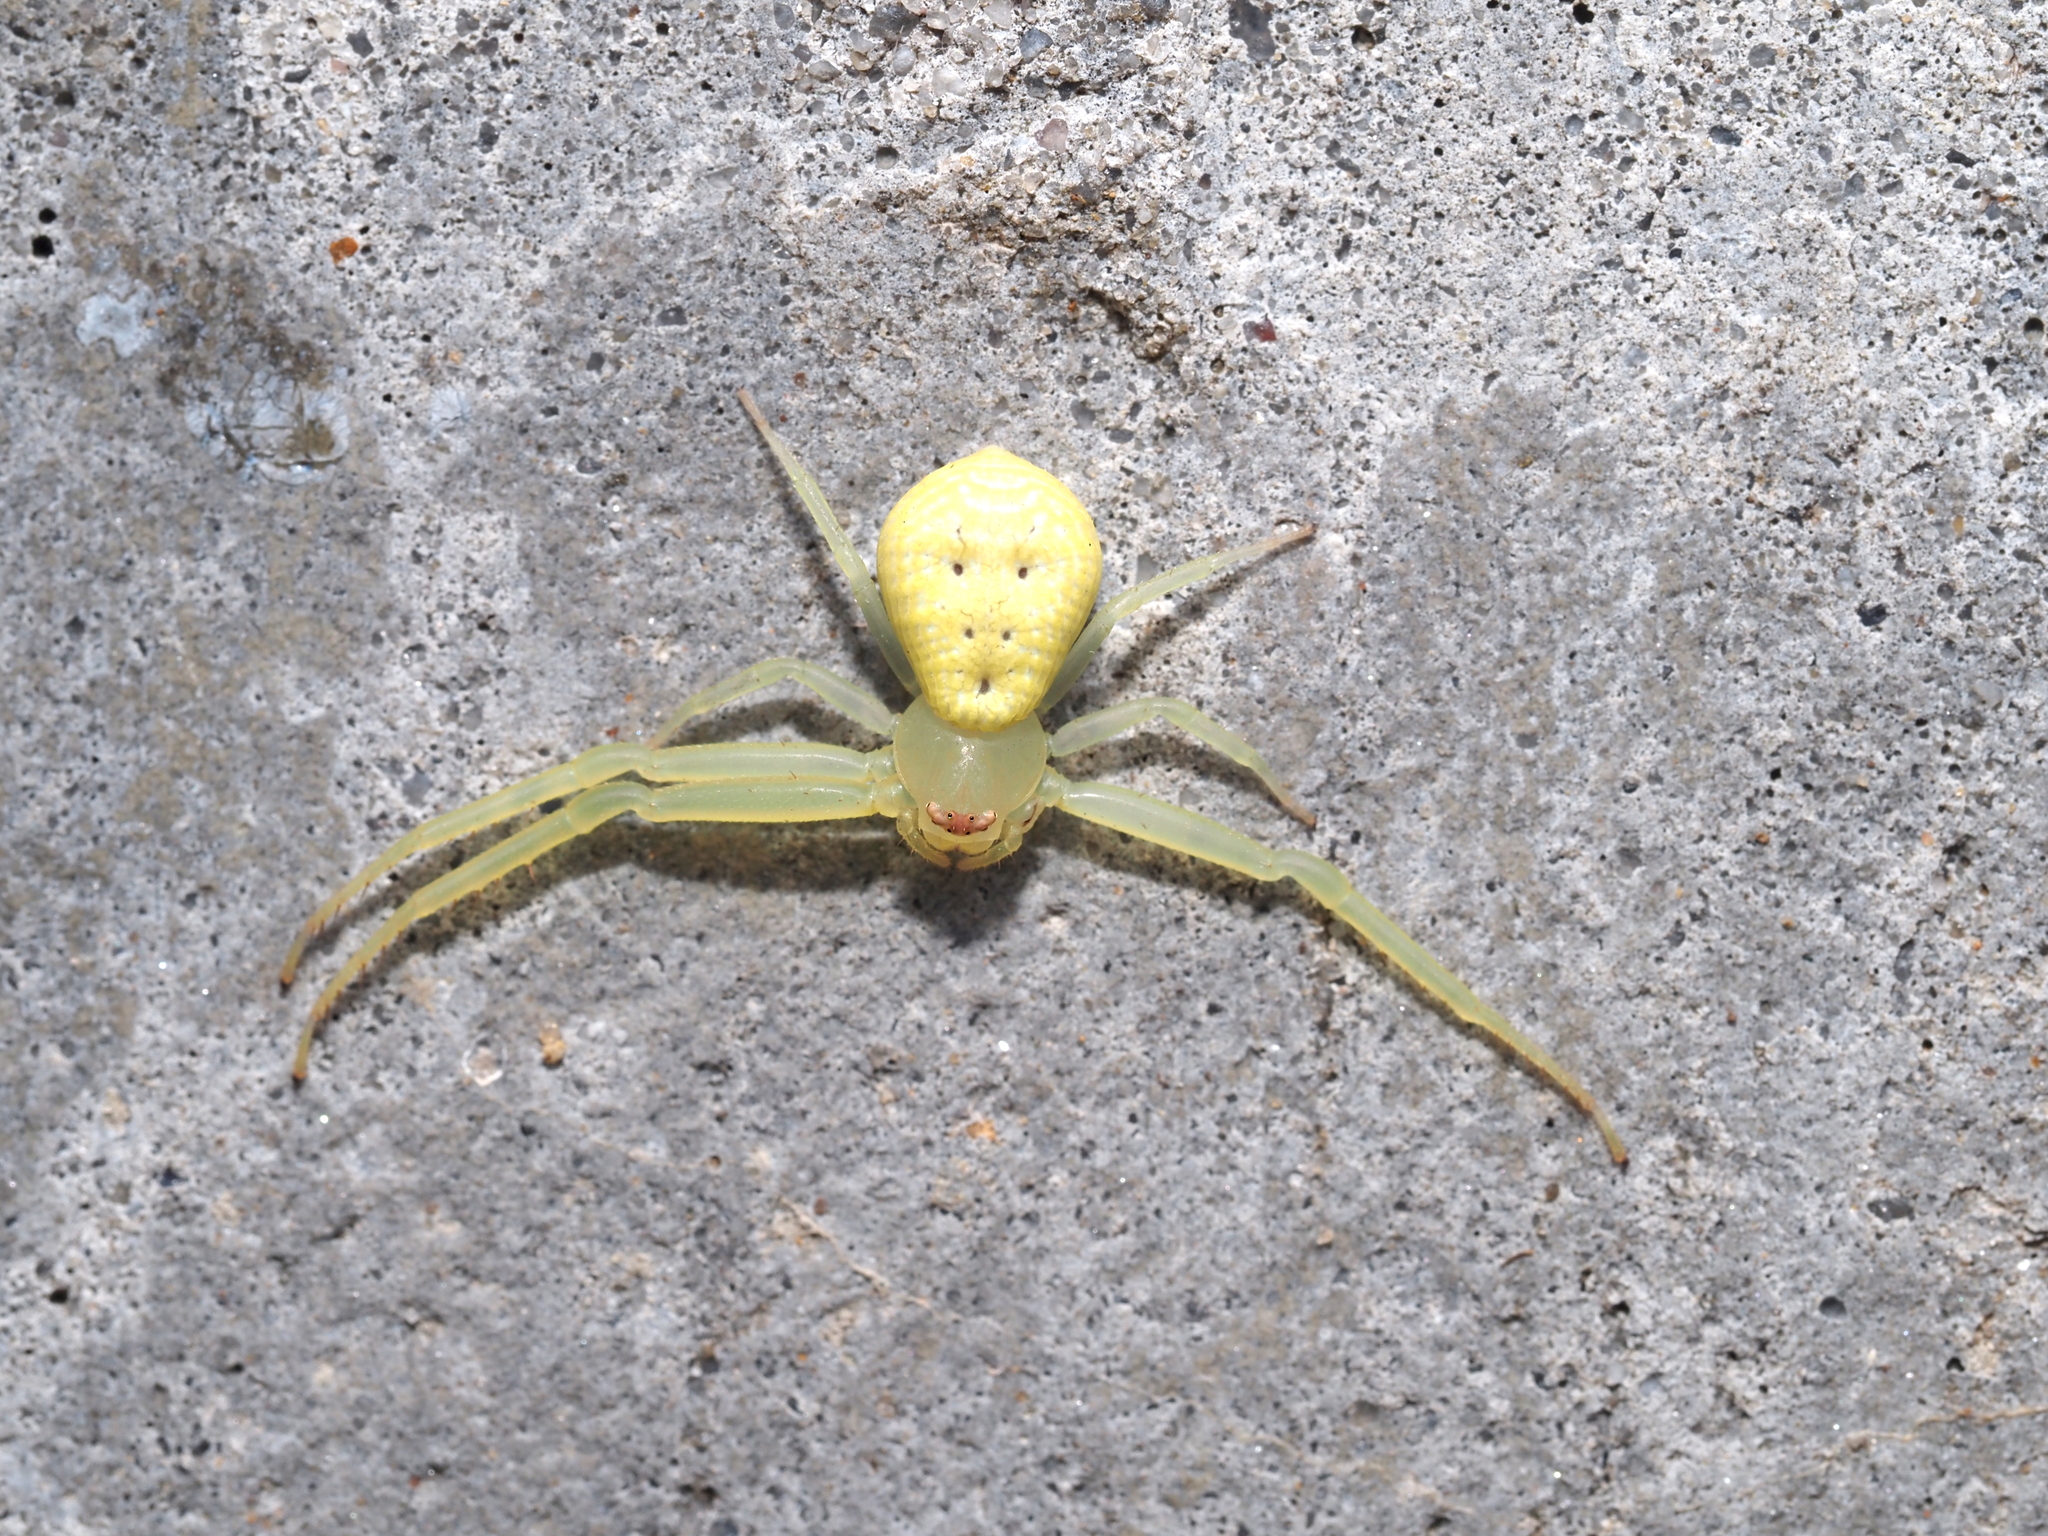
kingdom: Animalia
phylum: Arthropoda
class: Arachnida
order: Araneae
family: Thomisidae
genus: Misumessus
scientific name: Misumessus oblongus
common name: American green crab spider
